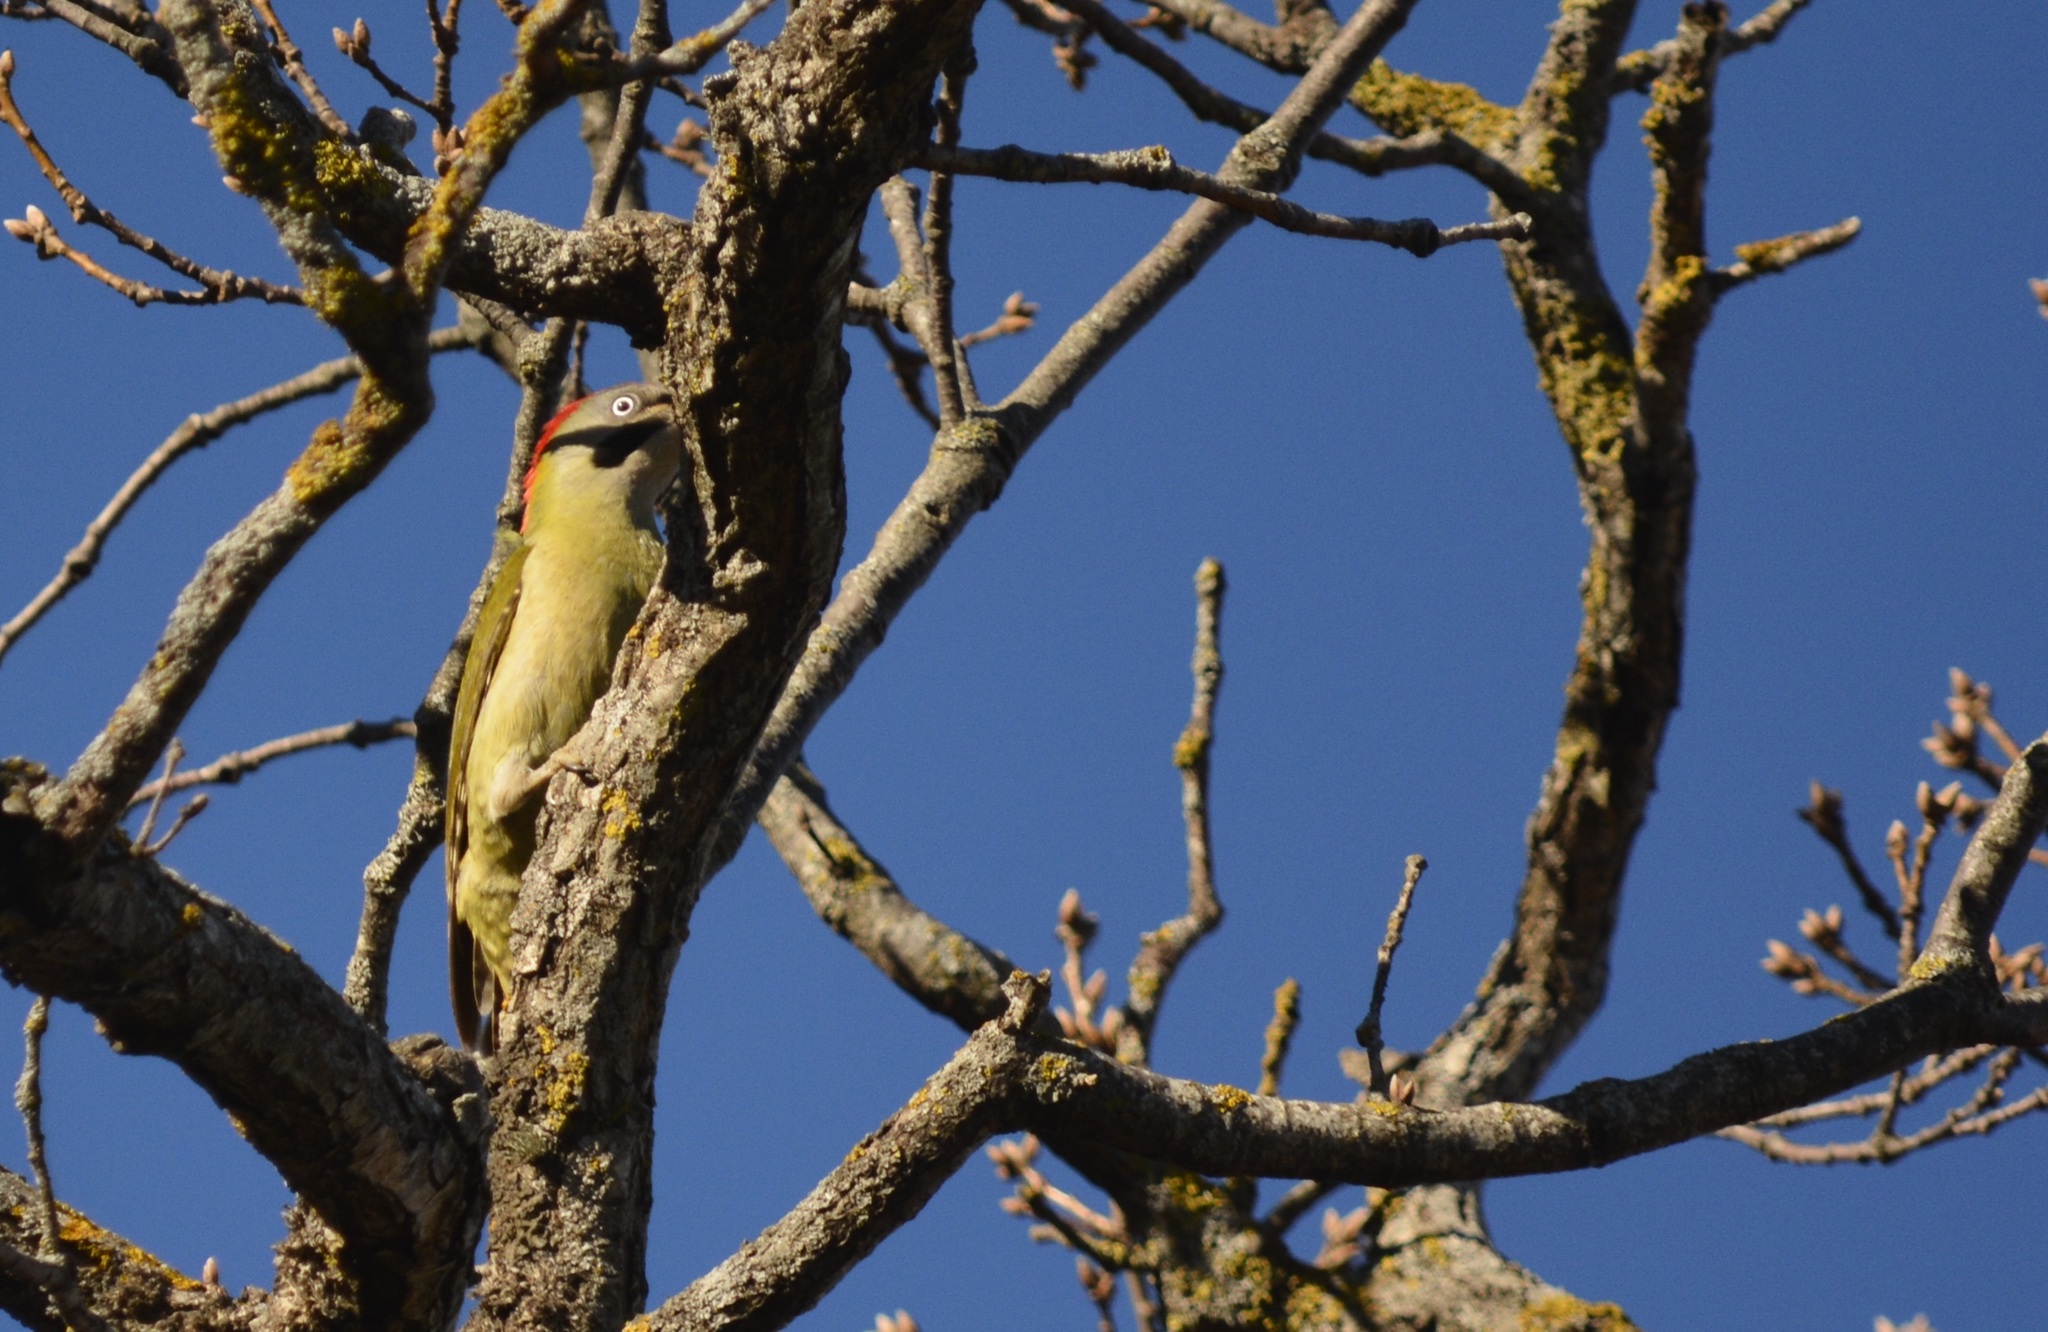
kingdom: Animalia
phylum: Chordata
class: Aves
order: Piciformes
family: Picidae
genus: Picus
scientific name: Picus vaillantii
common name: Levaillant's woodpecker
